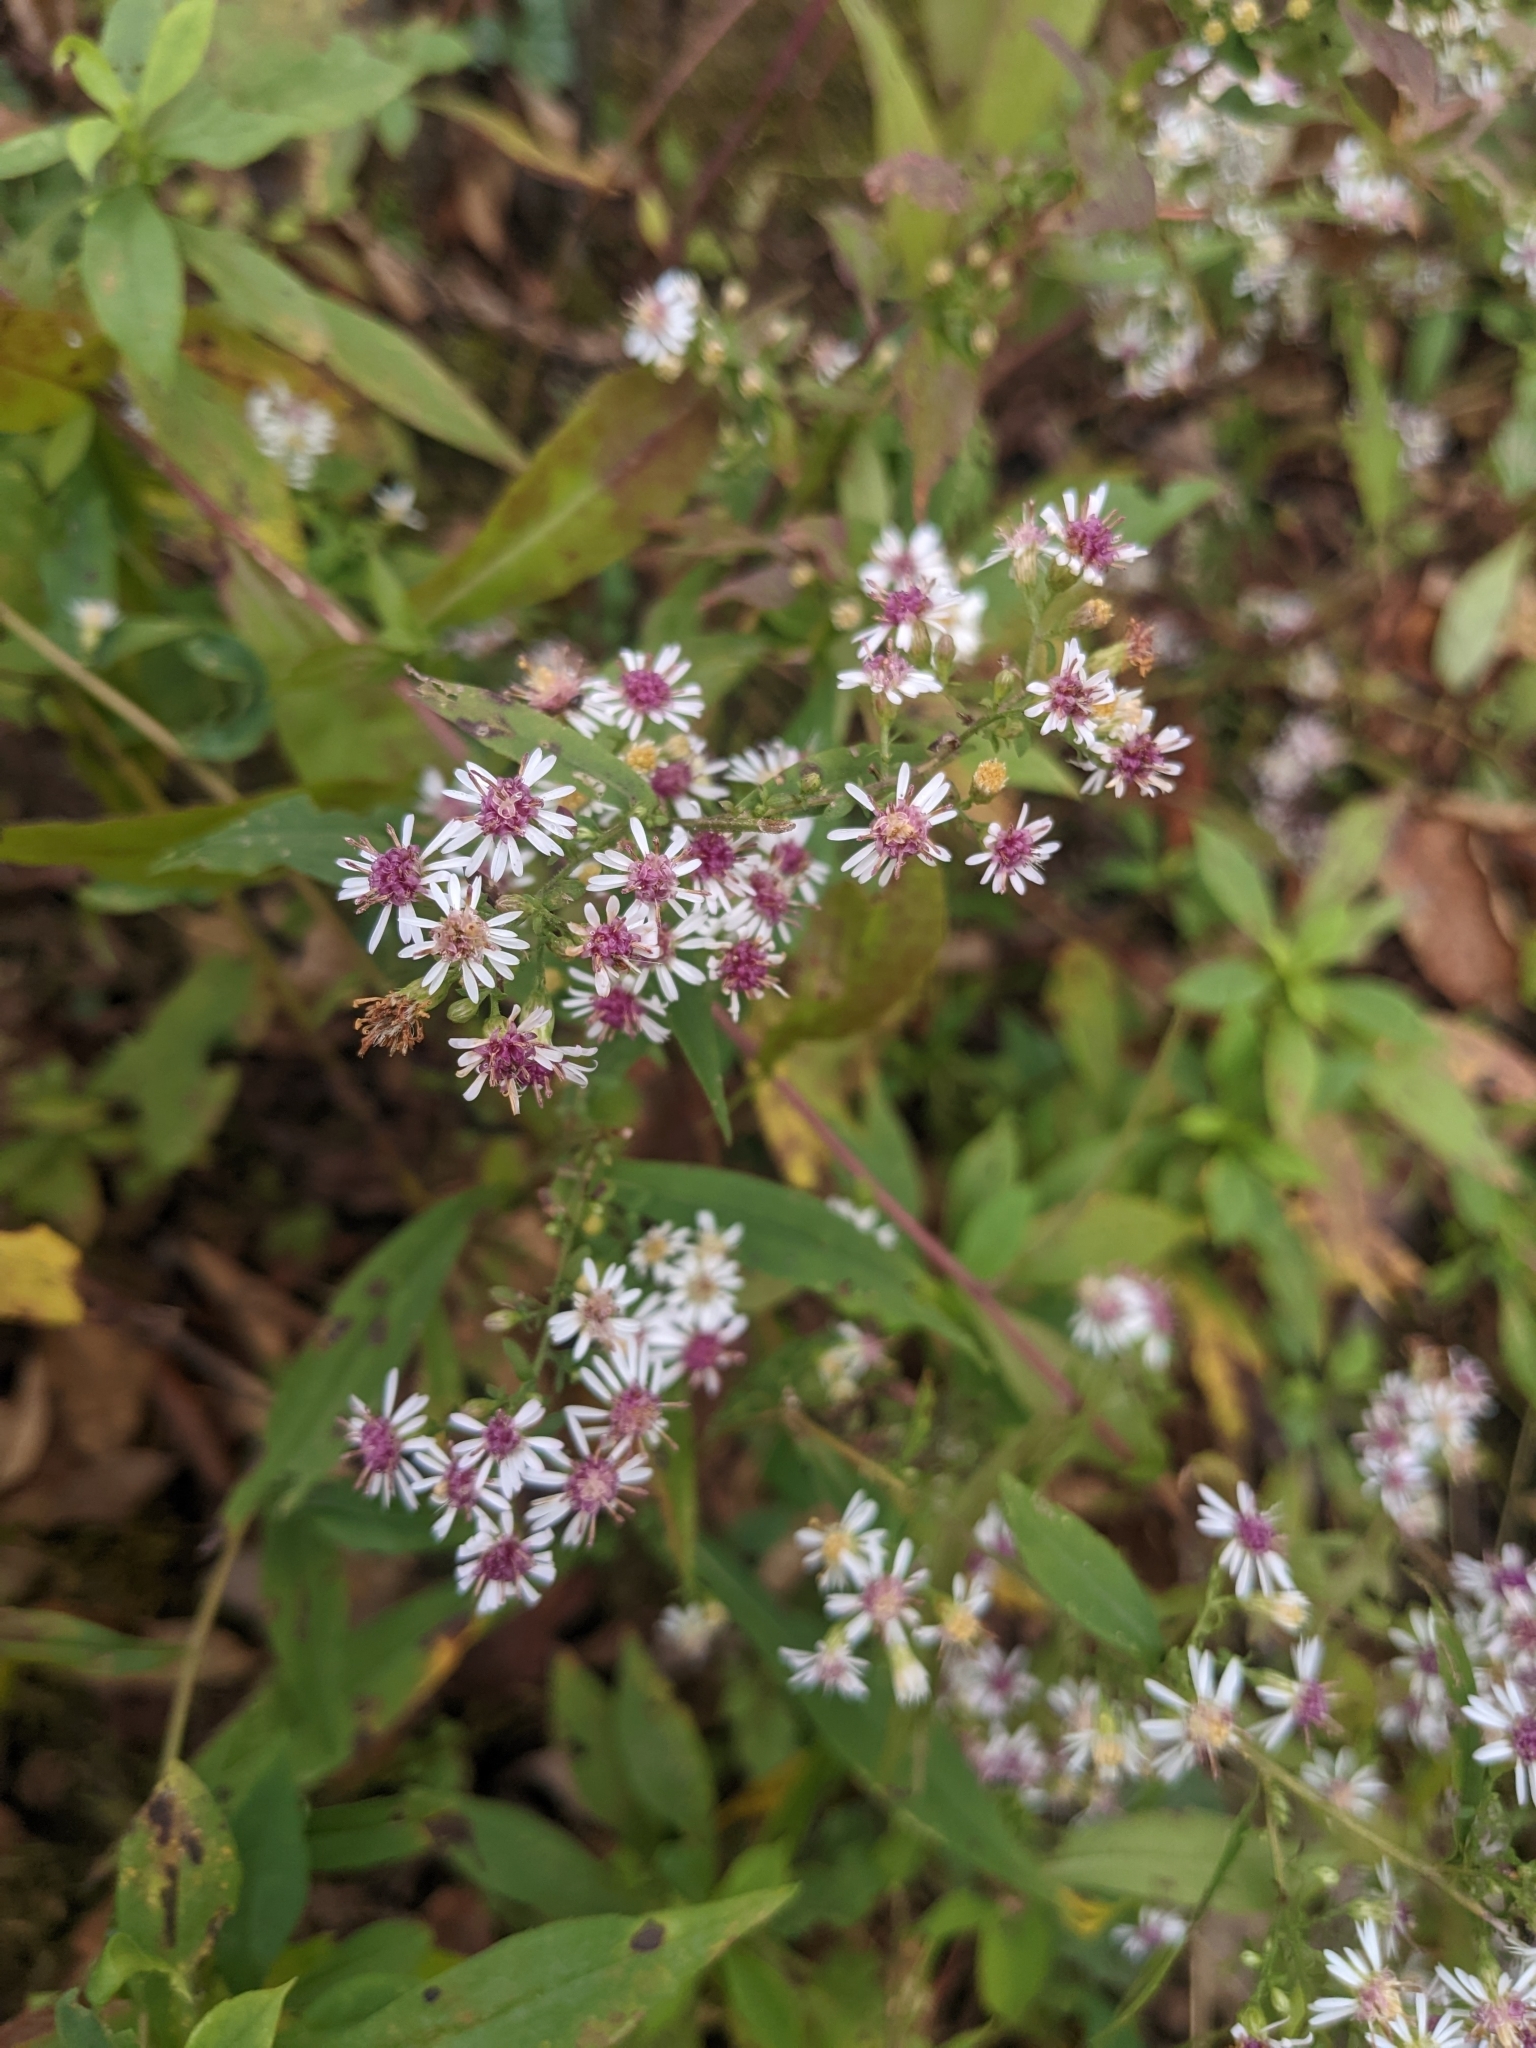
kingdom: Plantae
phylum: Tracheophyta
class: Magnoliopsida
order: Asterales
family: Asteraceae
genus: Symphyotrichum
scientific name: Symphyotrichum lateriflorum
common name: Calico aster
